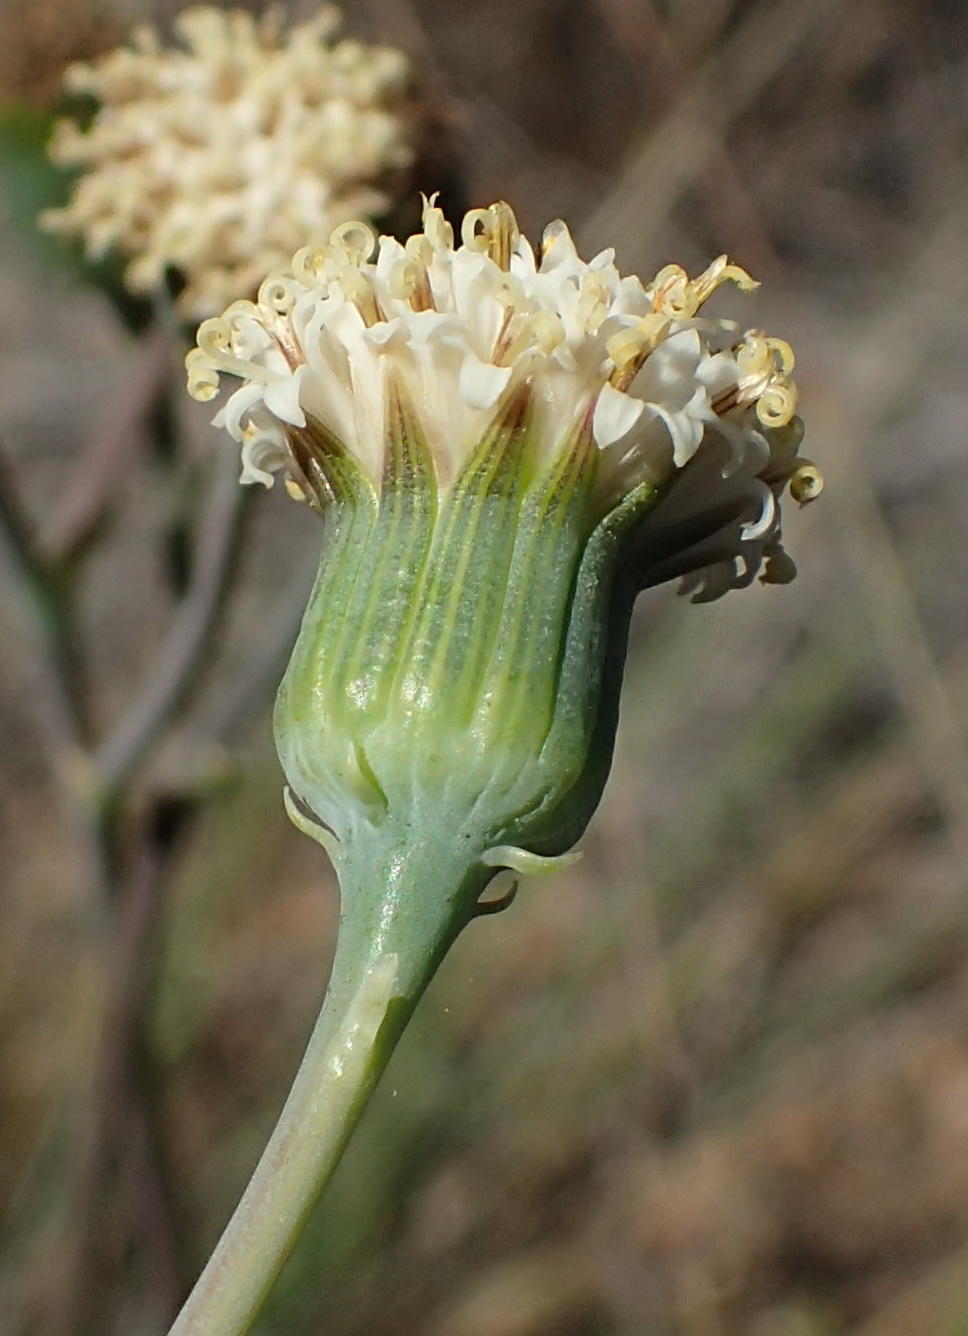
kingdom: Plantae
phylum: Tracheophyta
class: Magnoliopsida
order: Asterales
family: Asteraceae
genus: Curio
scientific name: Curio talinoides
